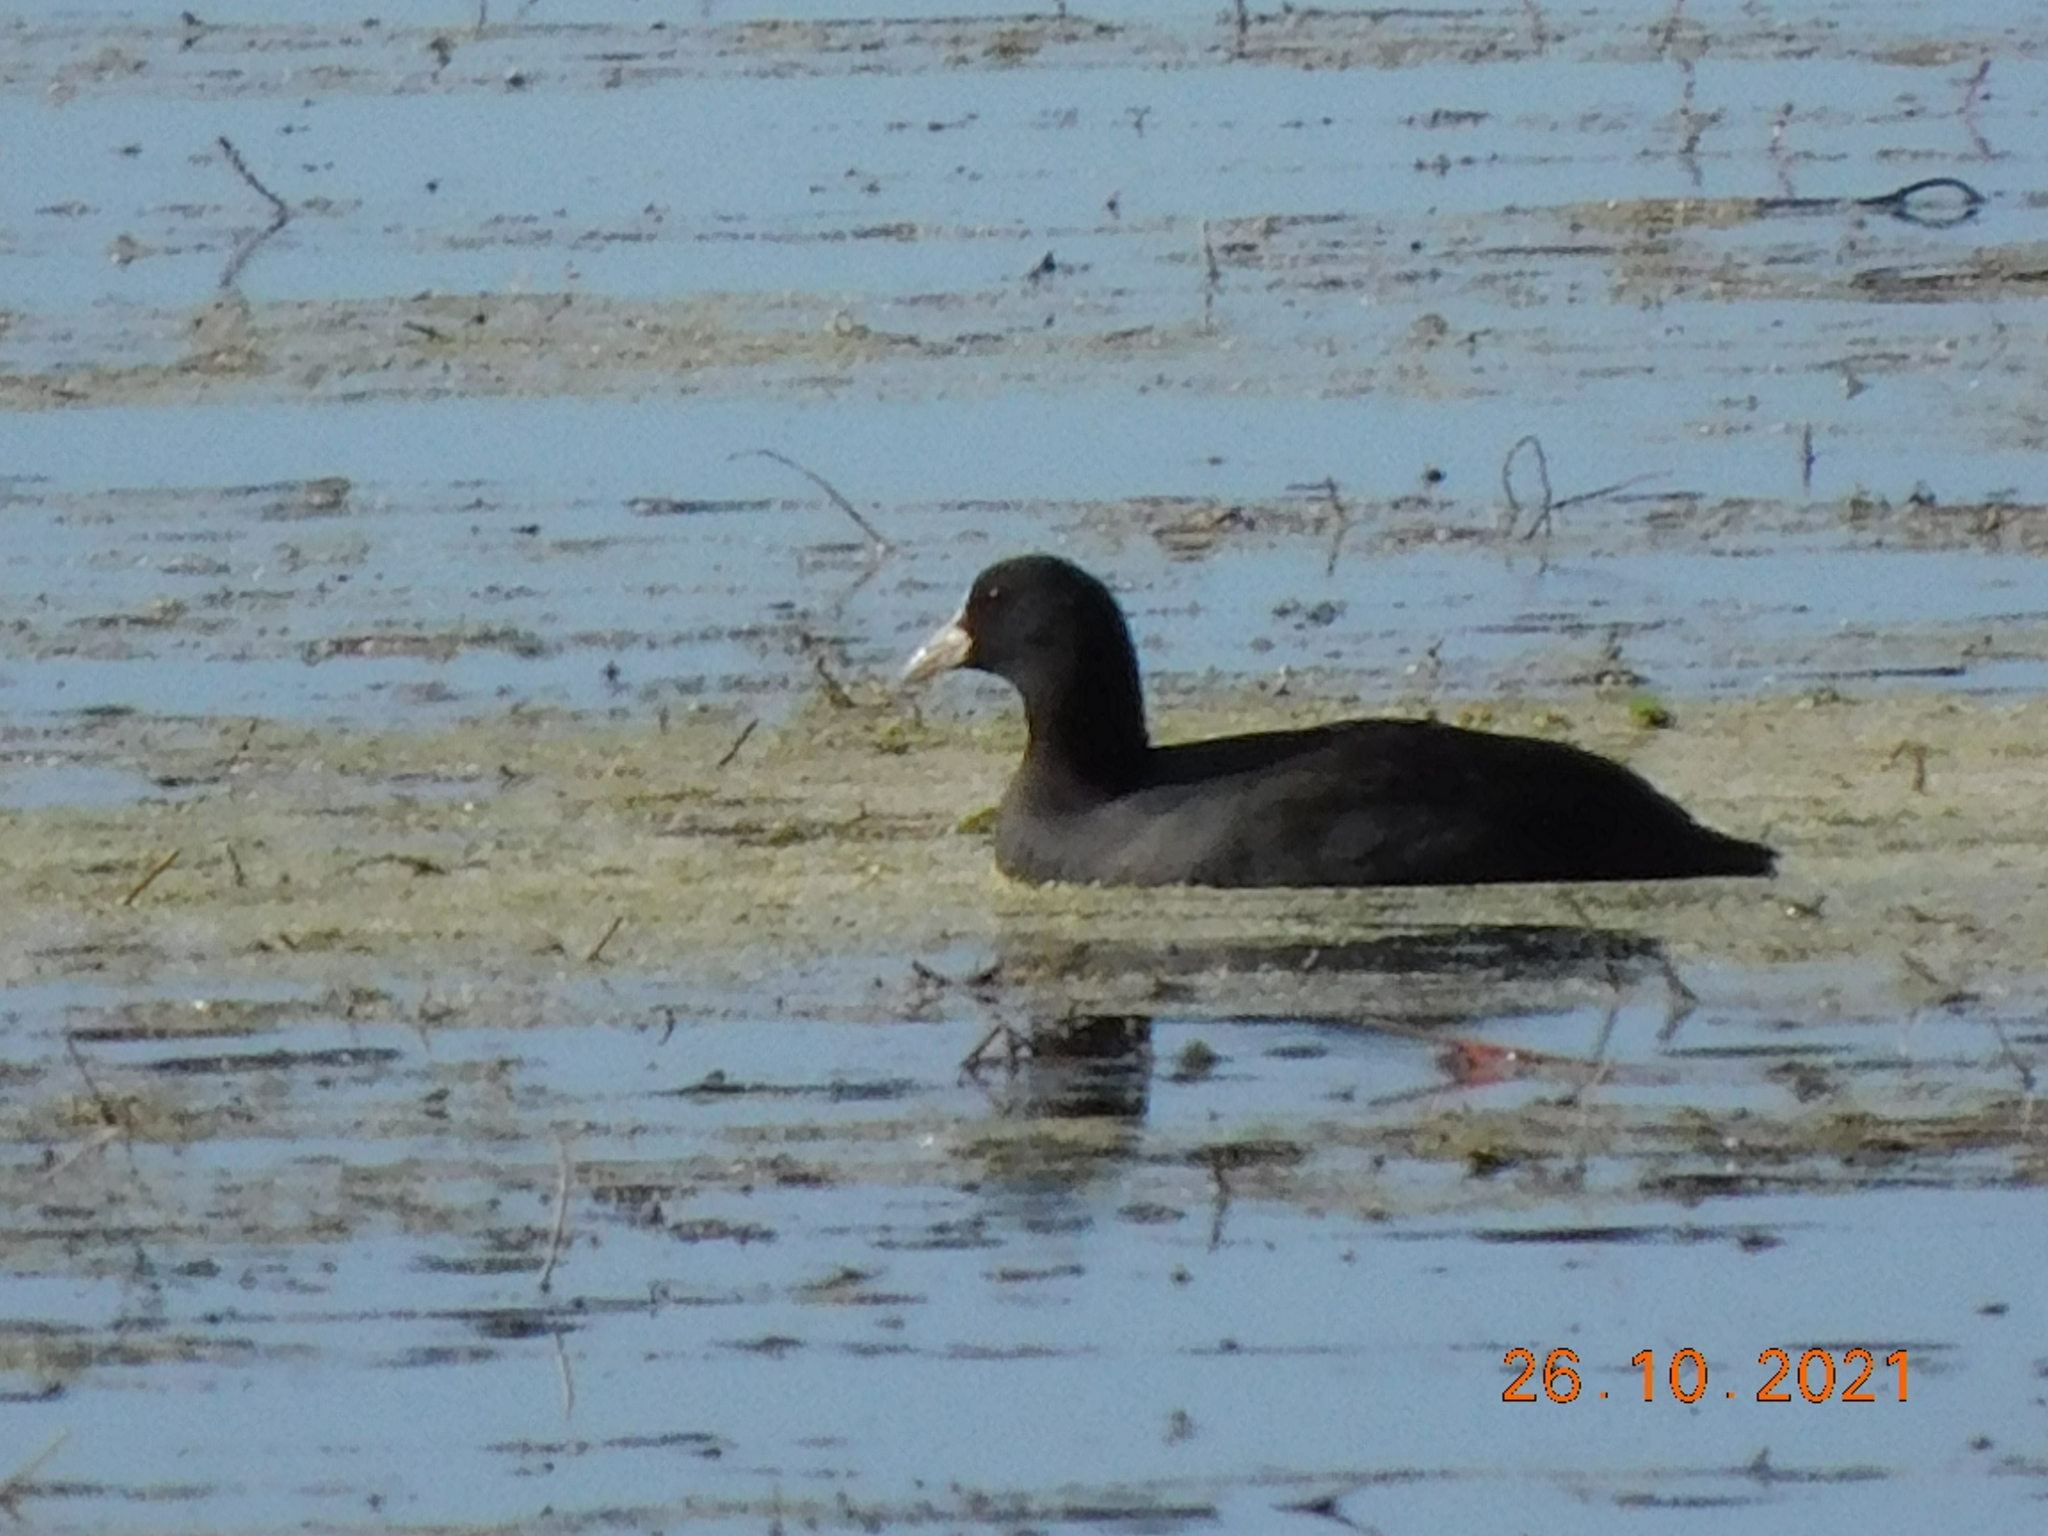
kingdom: Animalia
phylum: Chordata
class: Aves
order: Gruiformes
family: Rallidae
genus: Fulica
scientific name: Fulica atra
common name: Eurasian coot
